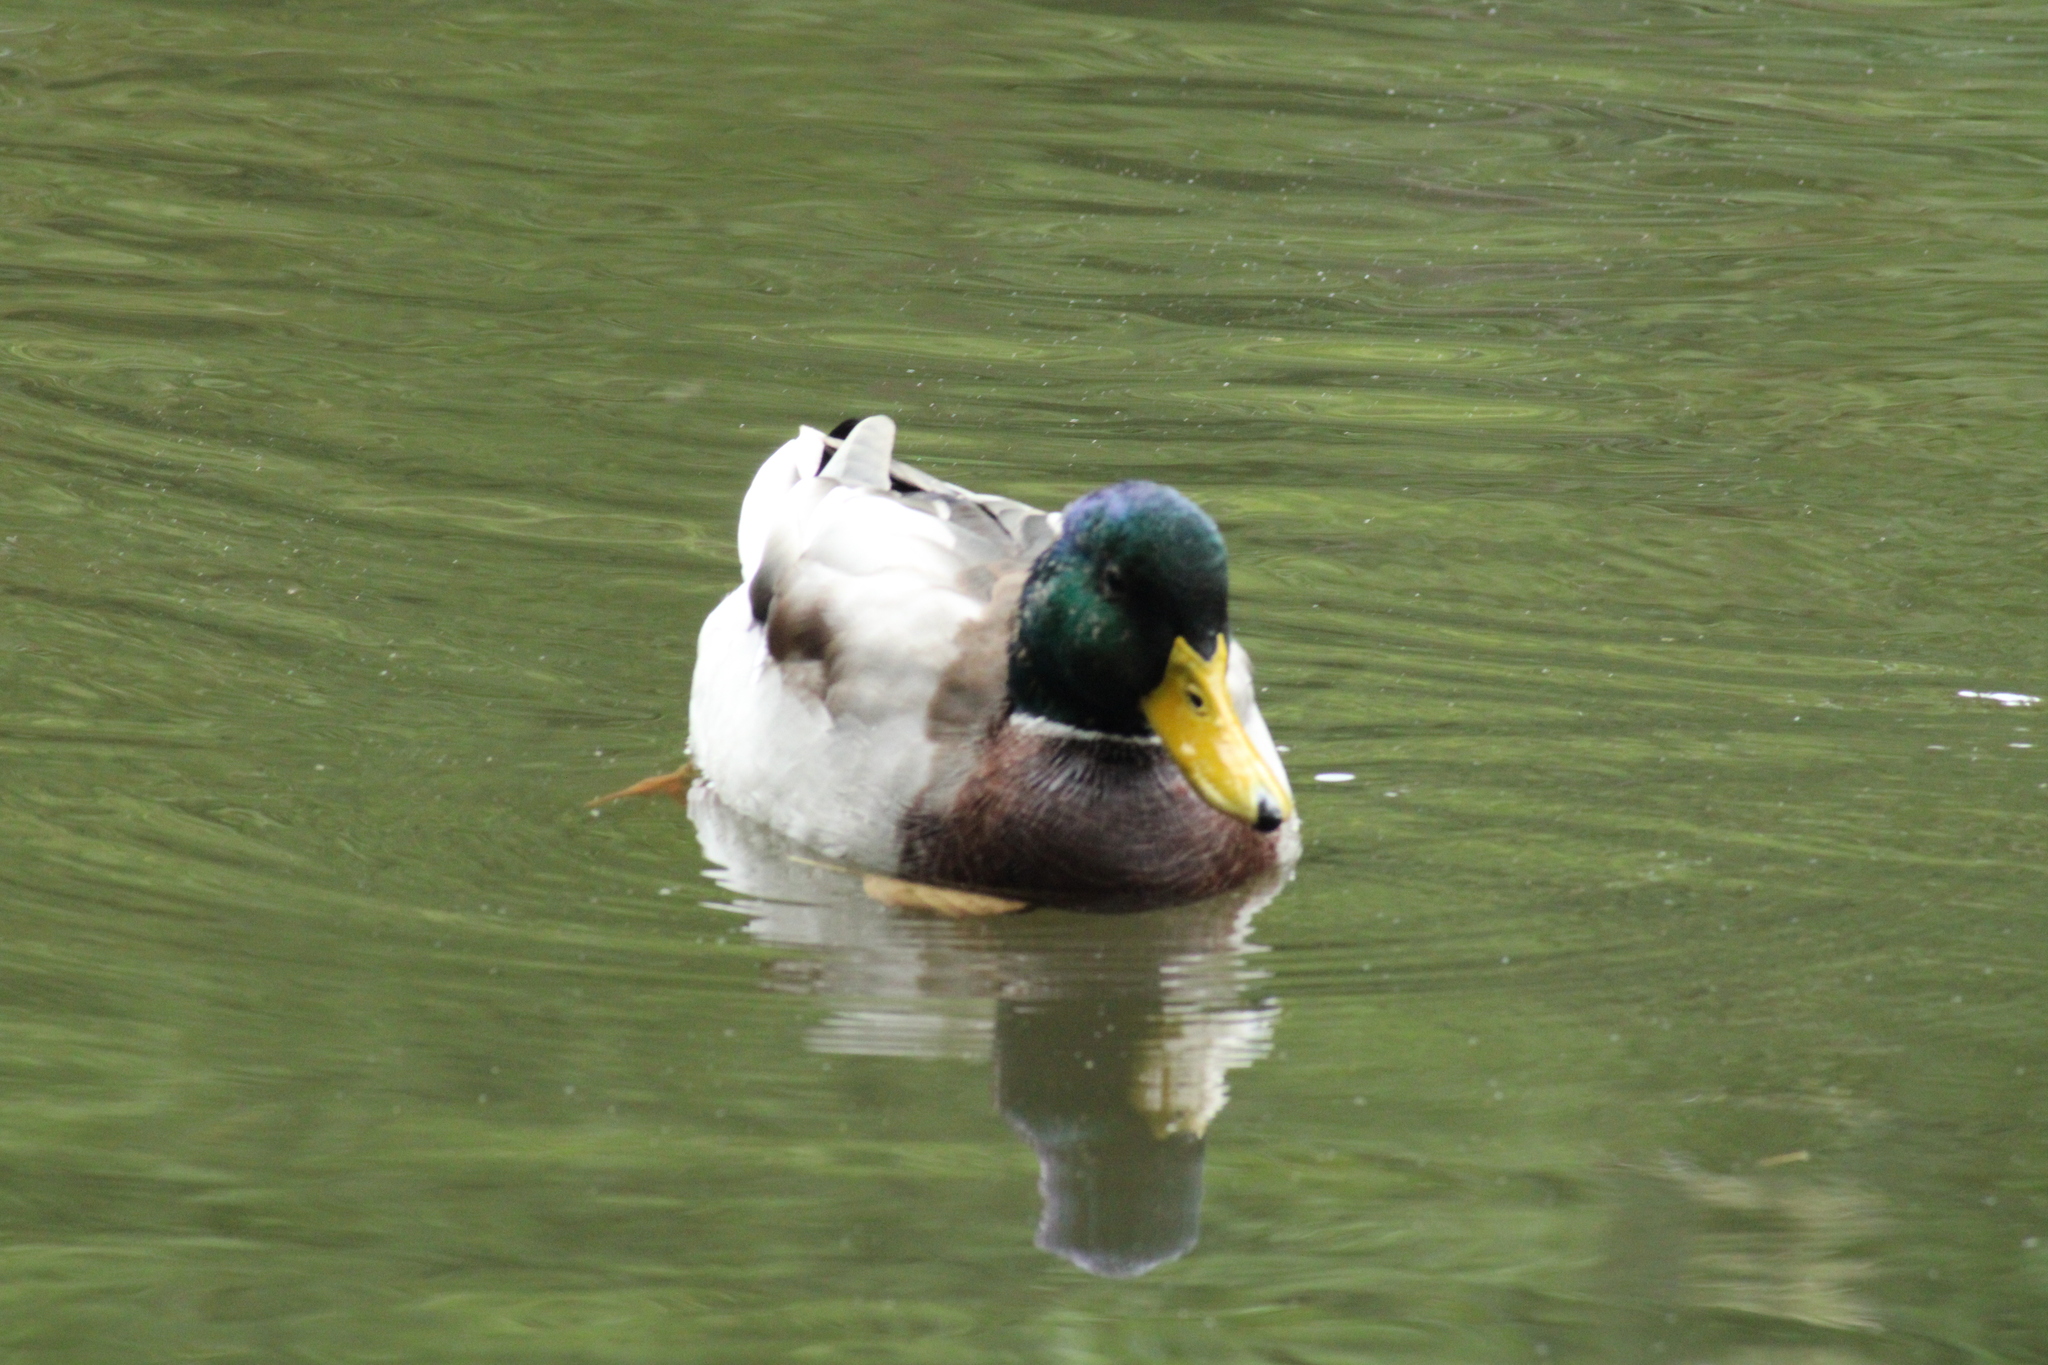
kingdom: Animalia
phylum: Chordata
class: Aves
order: Anseriformes
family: Anatidae
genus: Anas
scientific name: Anas platyrhynchos
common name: Mallard
